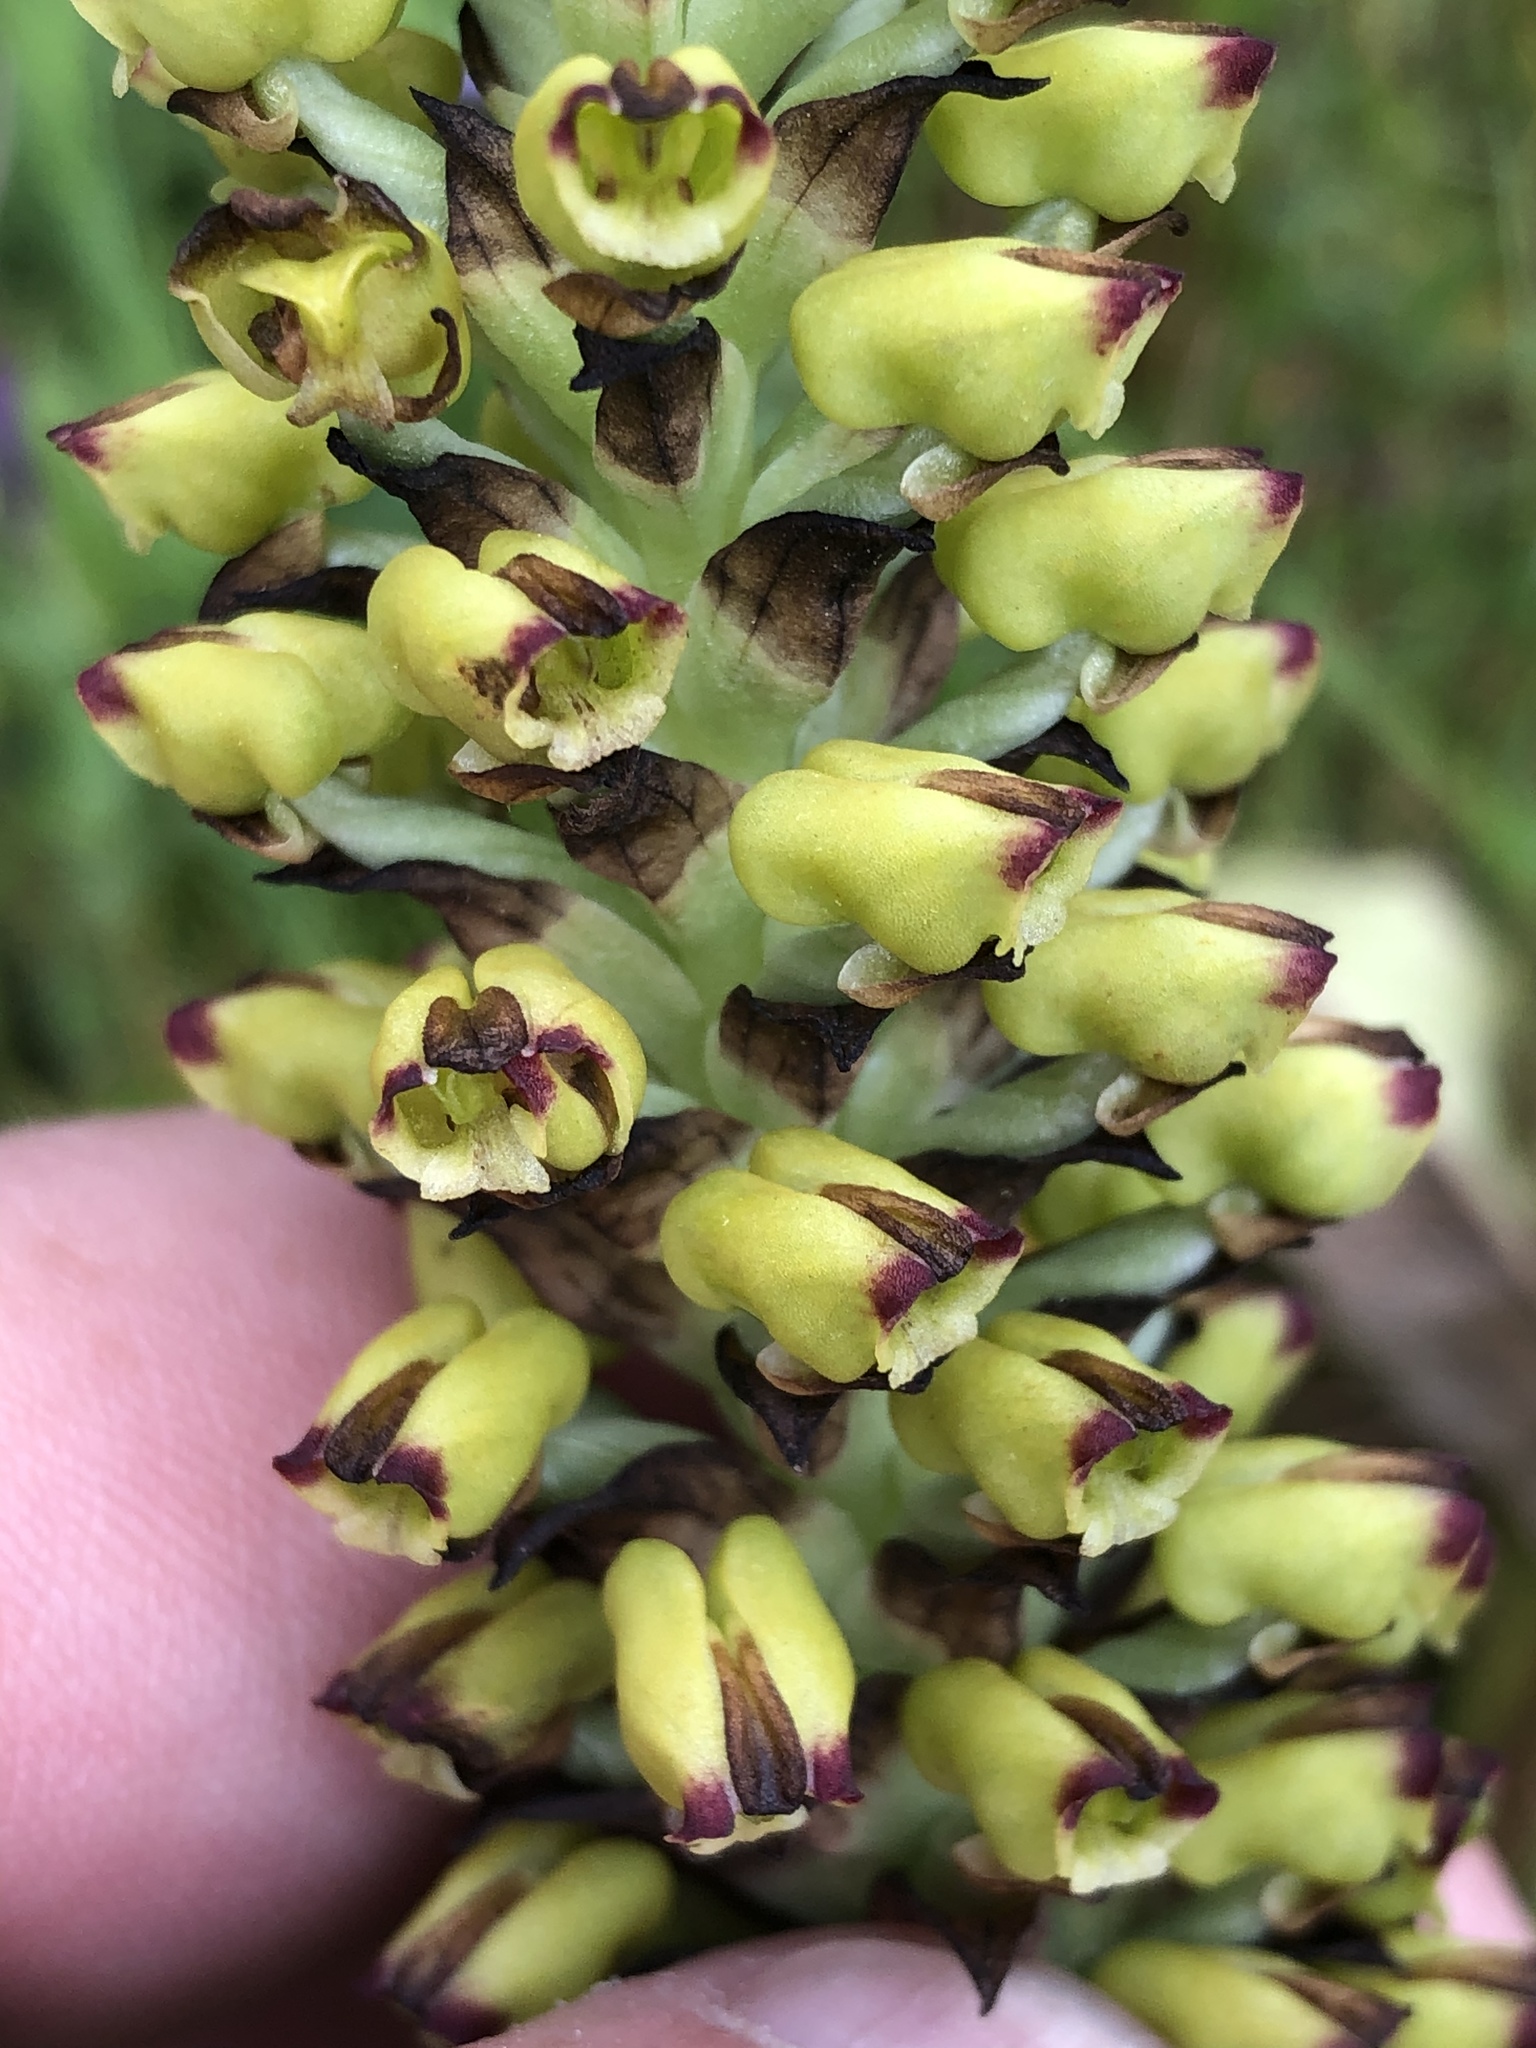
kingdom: Plantae
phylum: Tracheophyta
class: Liliopsida
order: Asparagales
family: Orchidaceae
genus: Corycium
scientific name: Corycium orobanchoides
